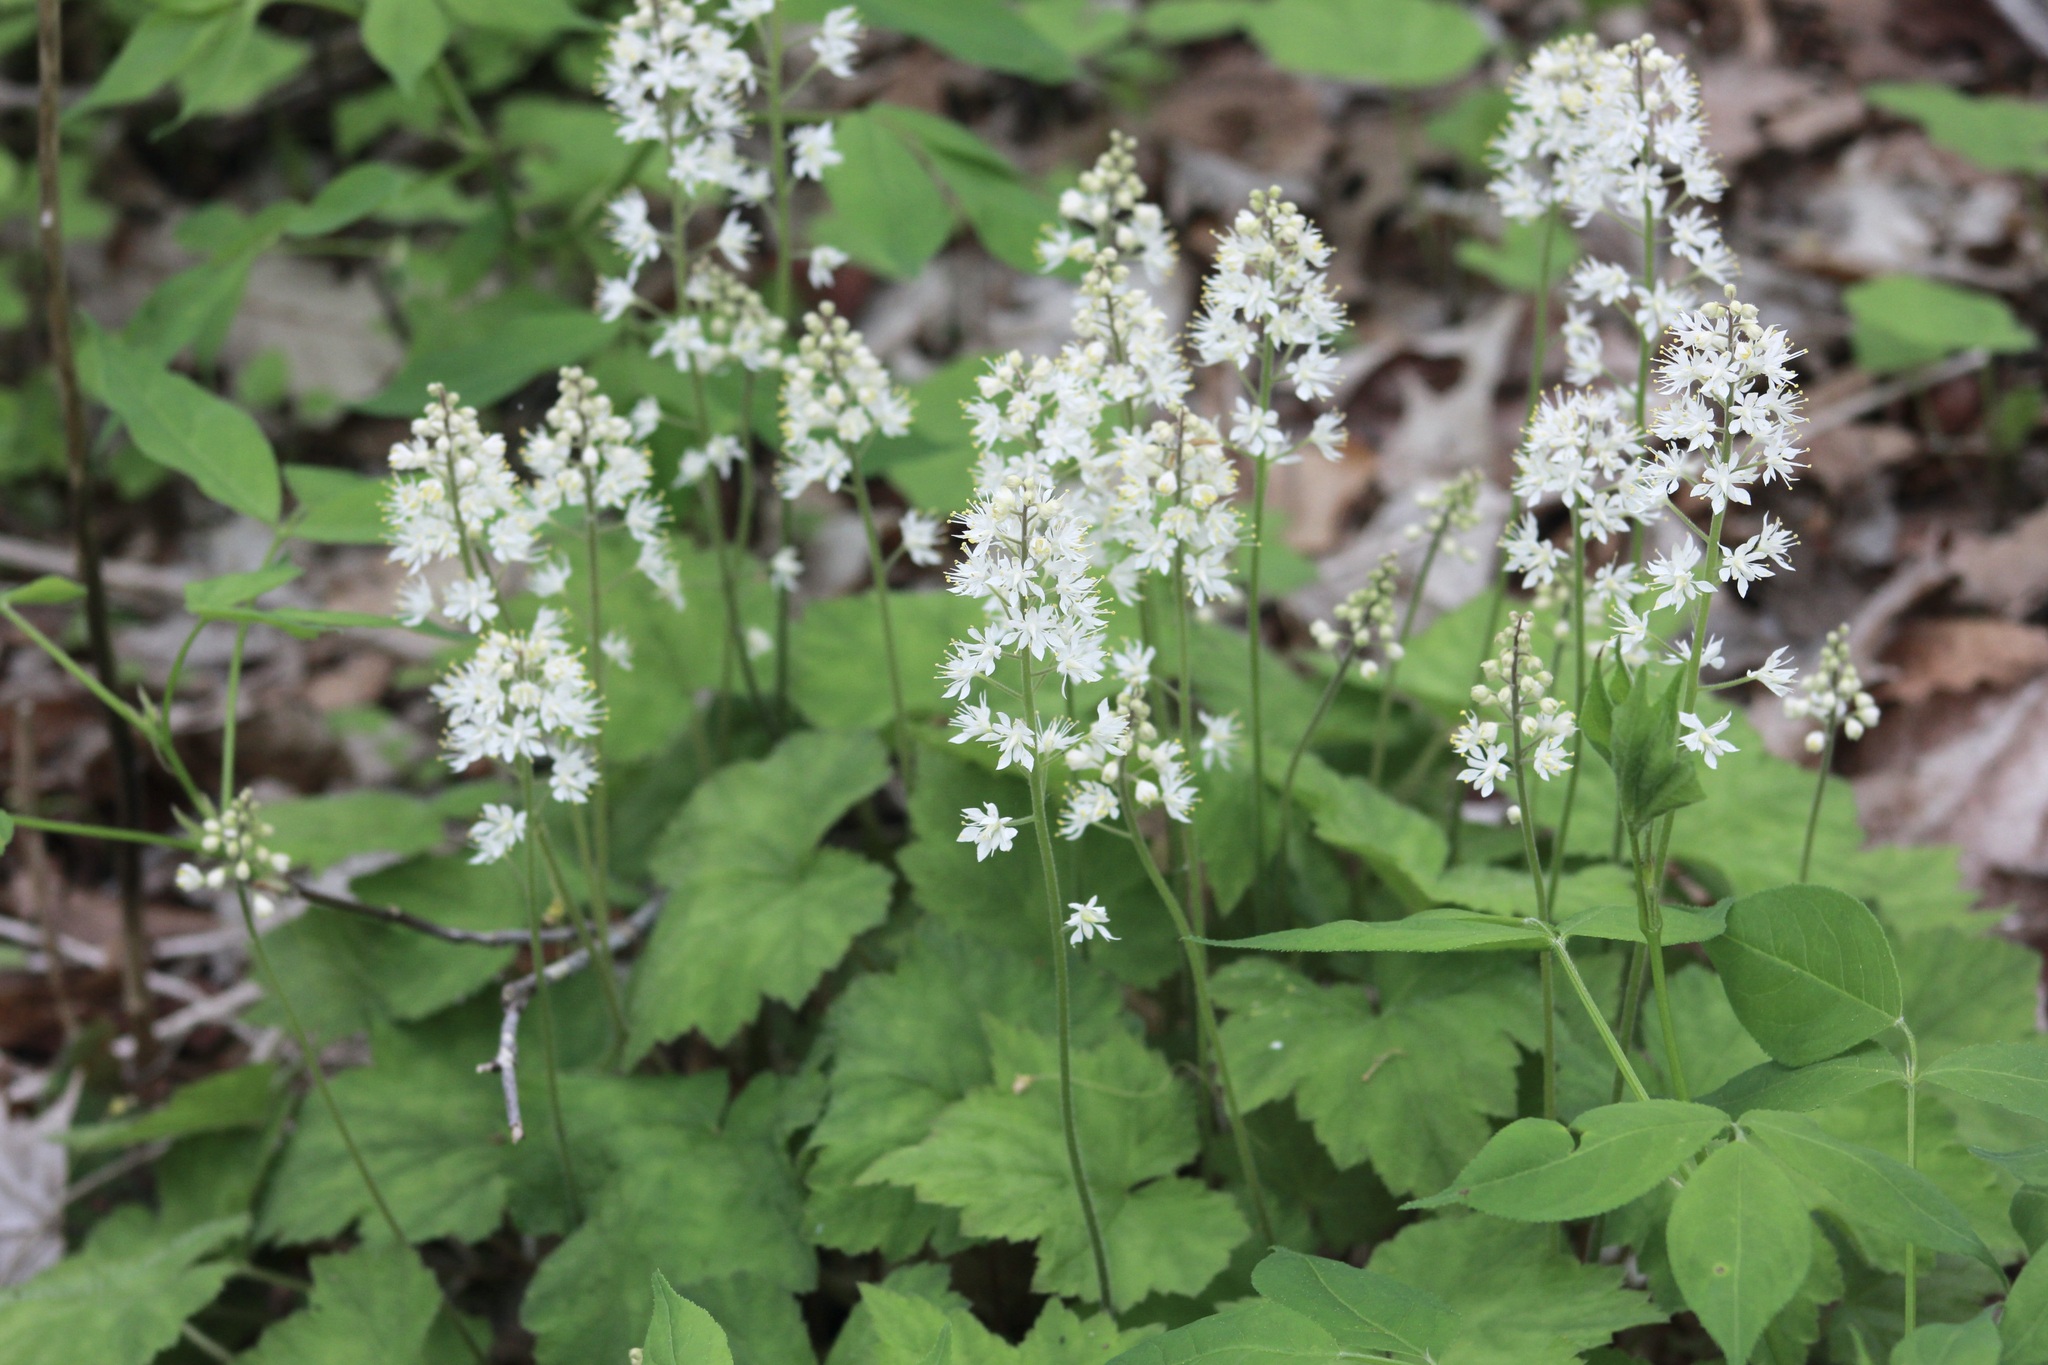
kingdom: Plantae
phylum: Tracheophyta
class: Magnoliopsida
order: Saxifragales
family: Saxifragaceae
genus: Tiarella
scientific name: Tiarella stolonifera
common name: Stoloniferous foamflower
